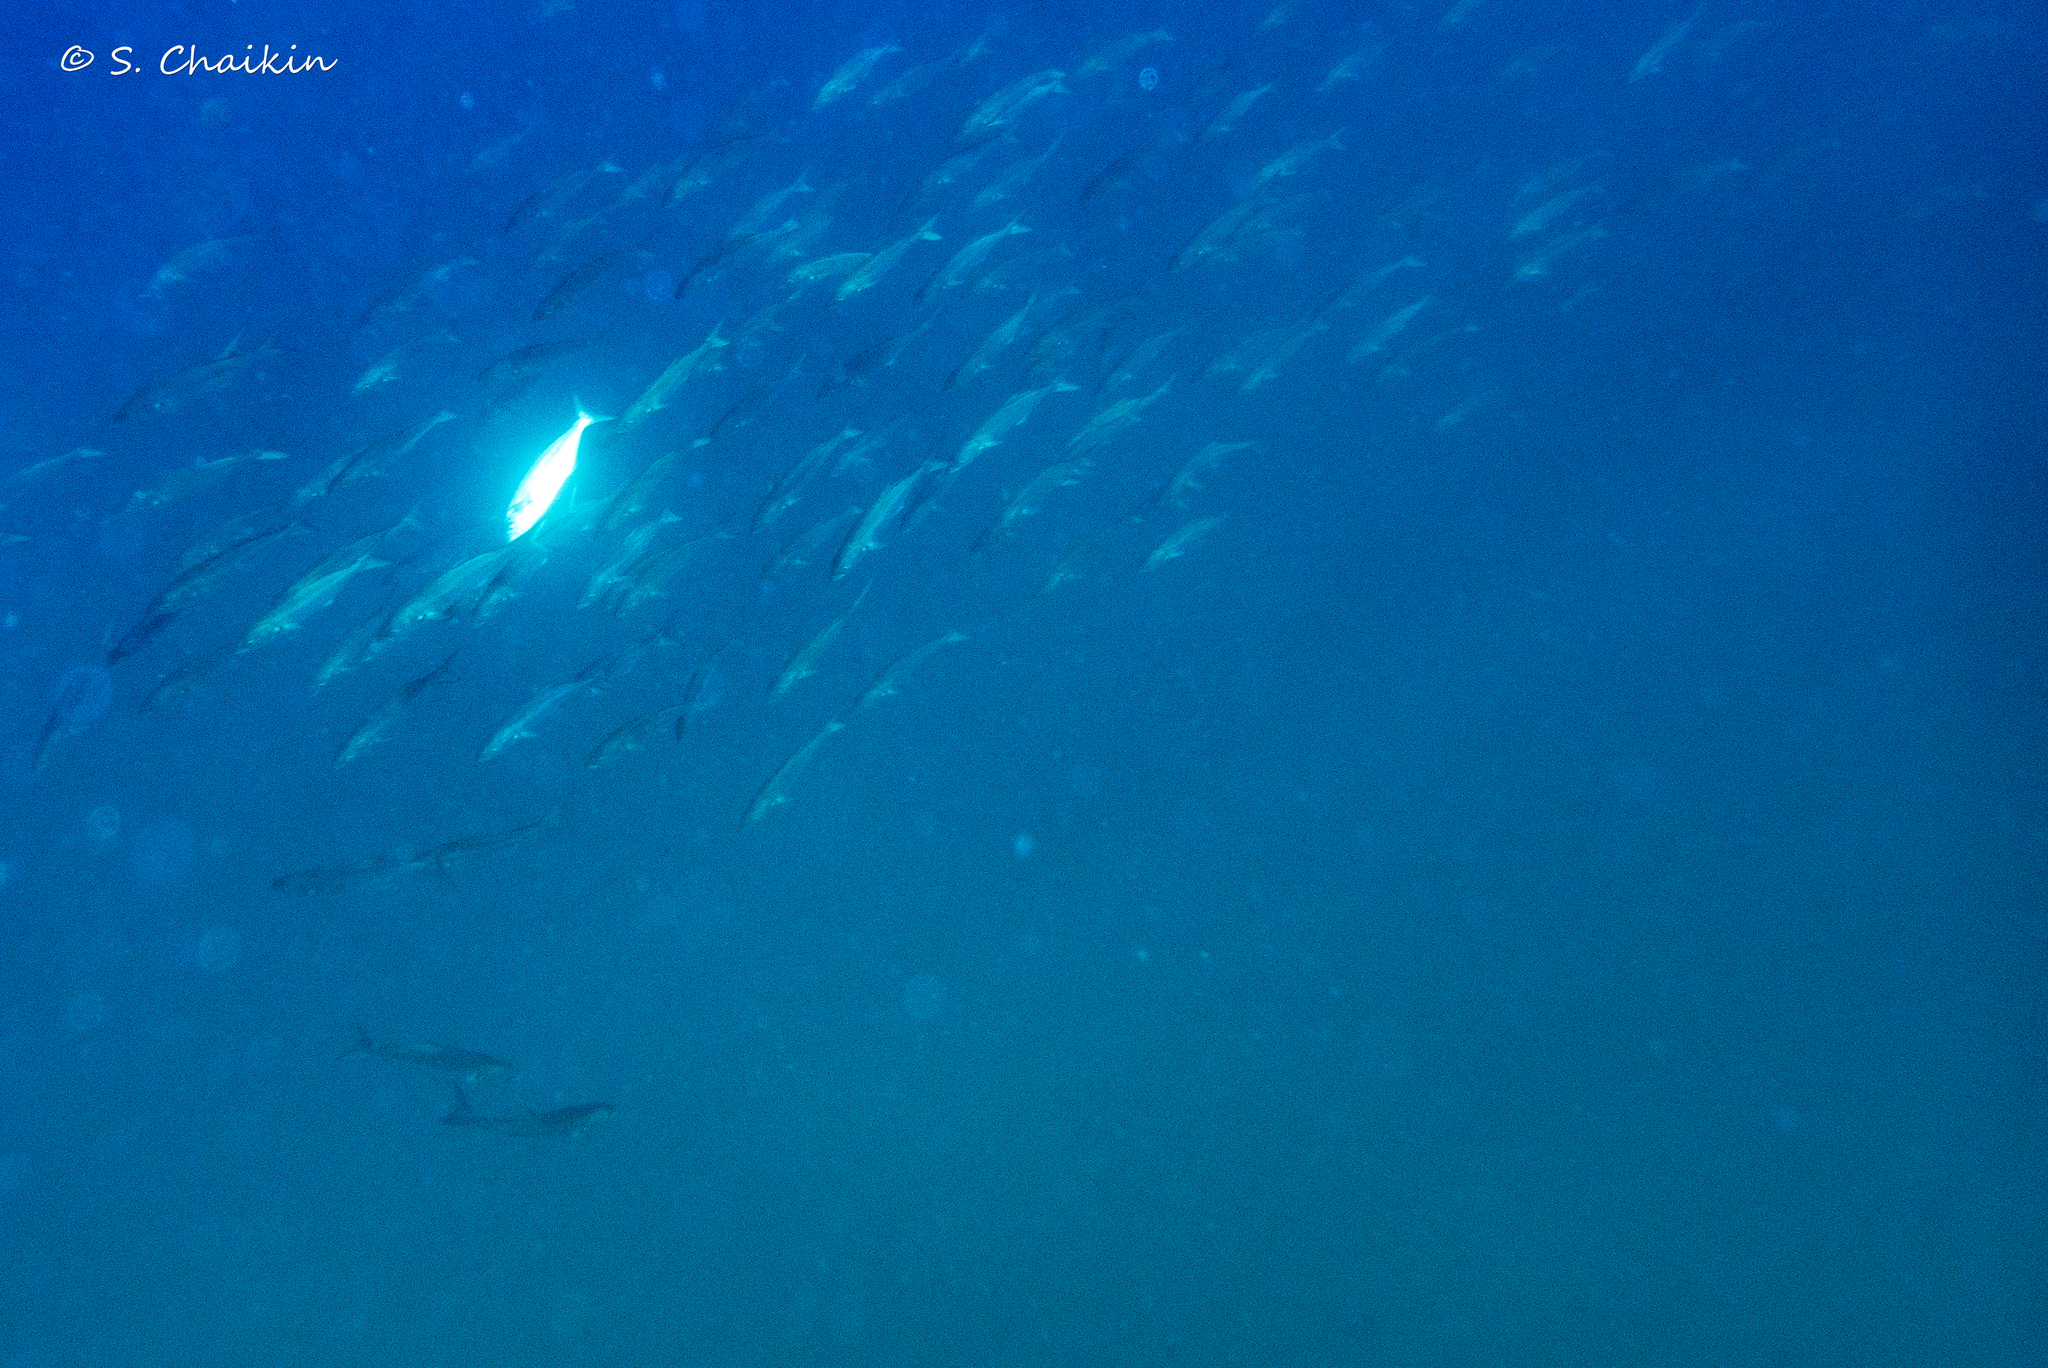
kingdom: Animalia
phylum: Chordata
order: Perciformes
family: Pomatomidae
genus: Pomatomus
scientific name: Pomatomus saltatrix
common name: Bluefish
